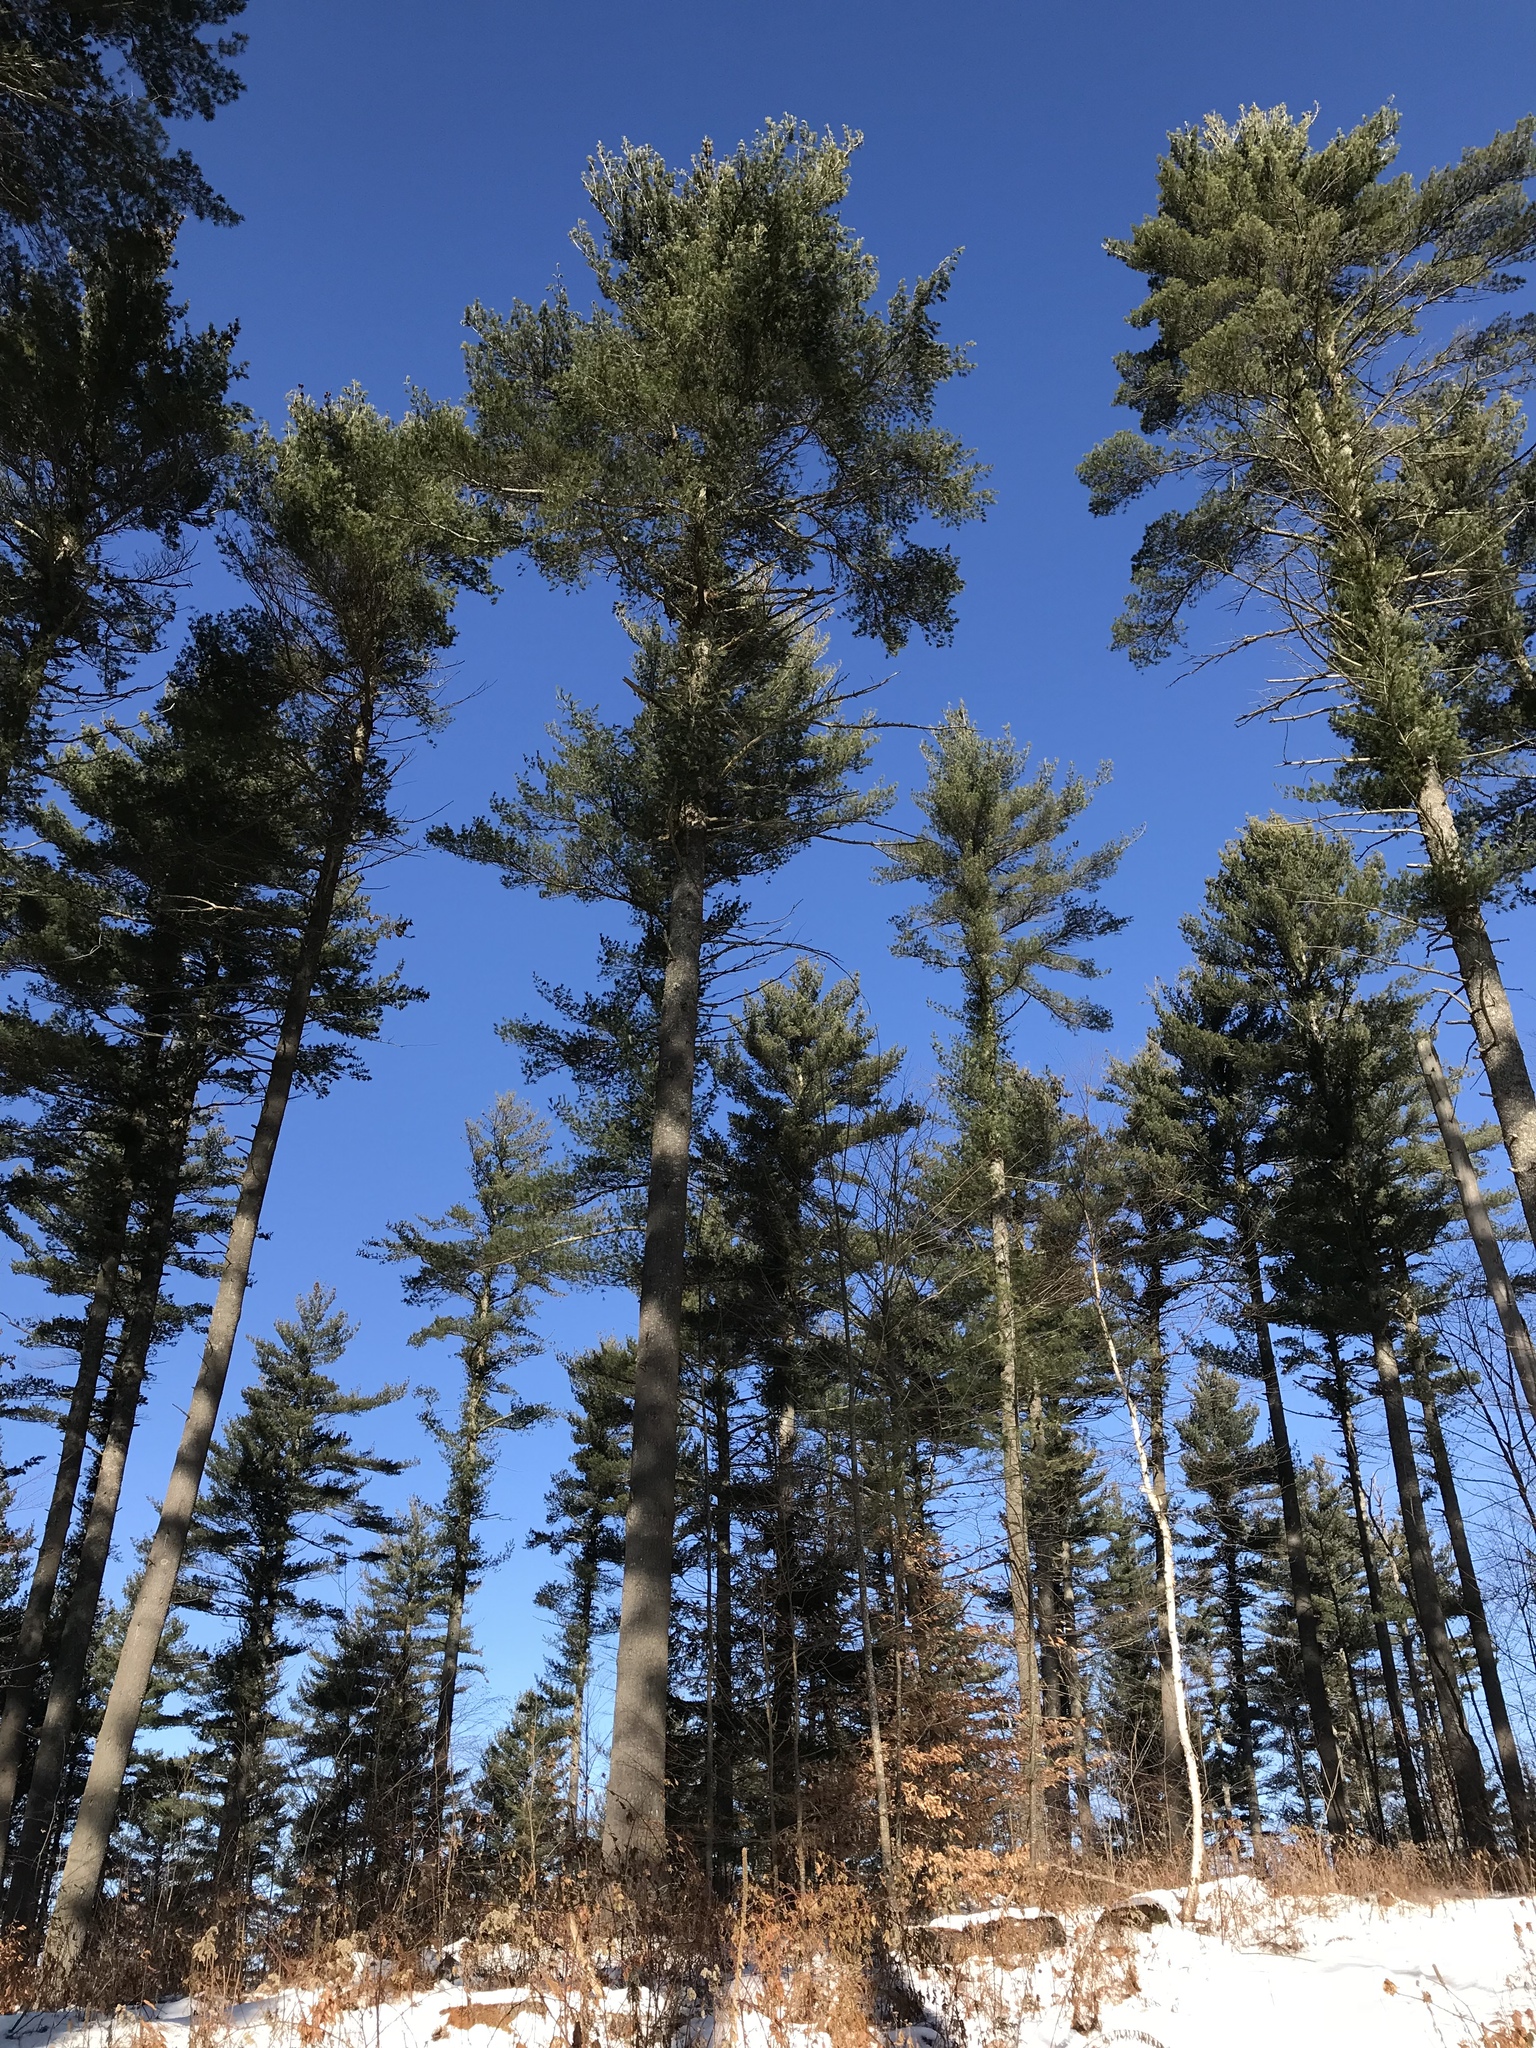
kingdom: Plantae
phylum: Tracheophyta
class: Pinopsida
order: Pinales
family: Pinaceae
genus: Pinus
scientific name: Pinus strobus
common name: Weymouth pine
